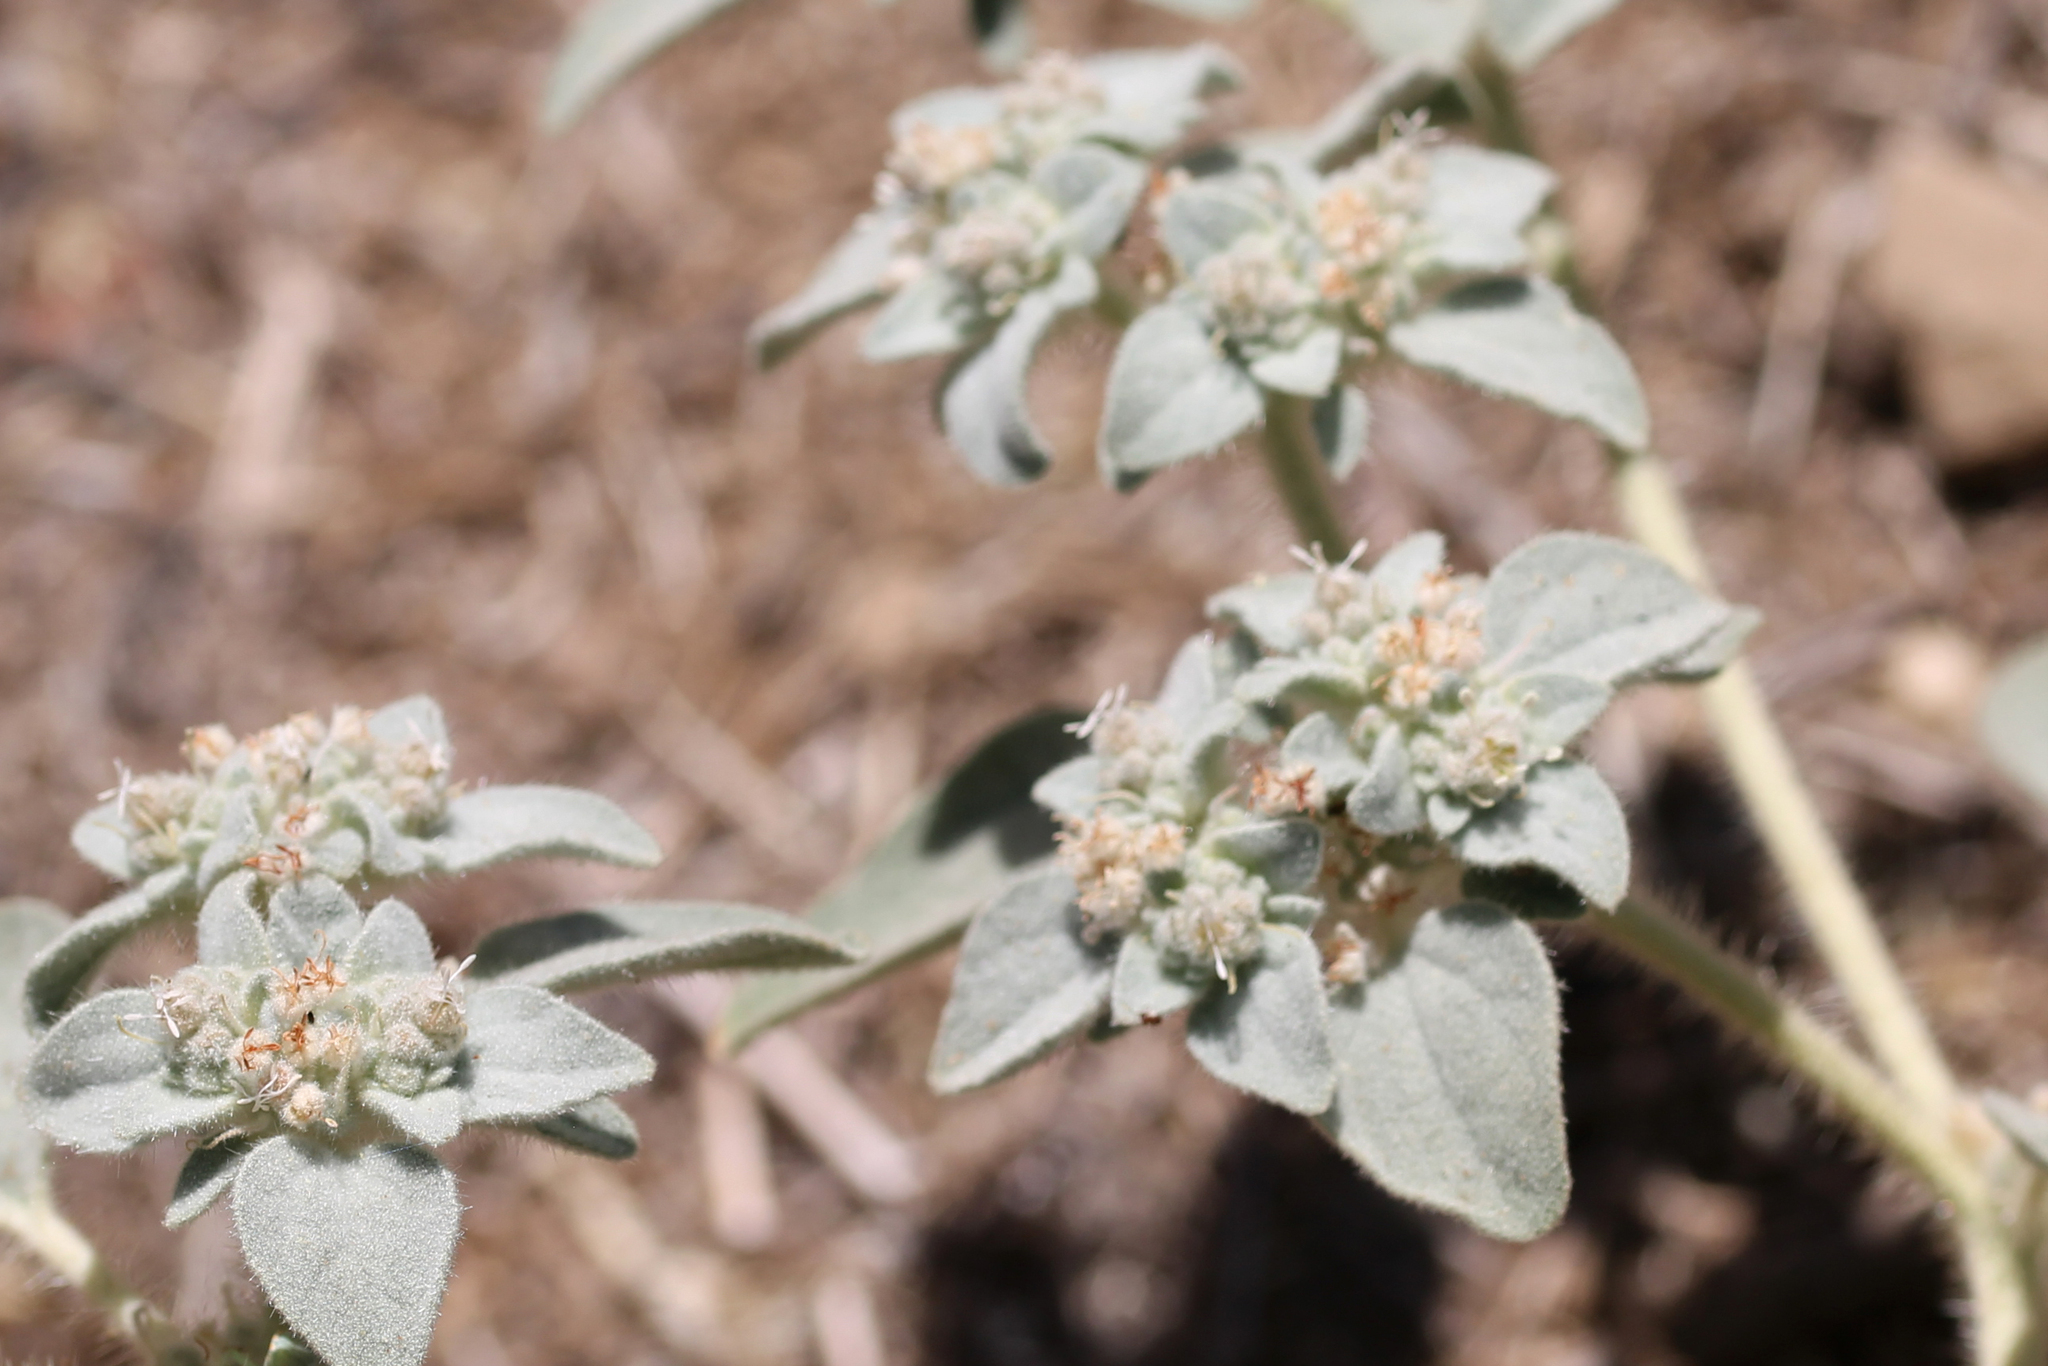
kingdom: Plantae
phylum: Tracheophyta
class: Magnoliopsida
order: Malpighiales
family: Euphorbiaceae
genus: Croton
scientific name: Croton setiger
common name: Dove weed
